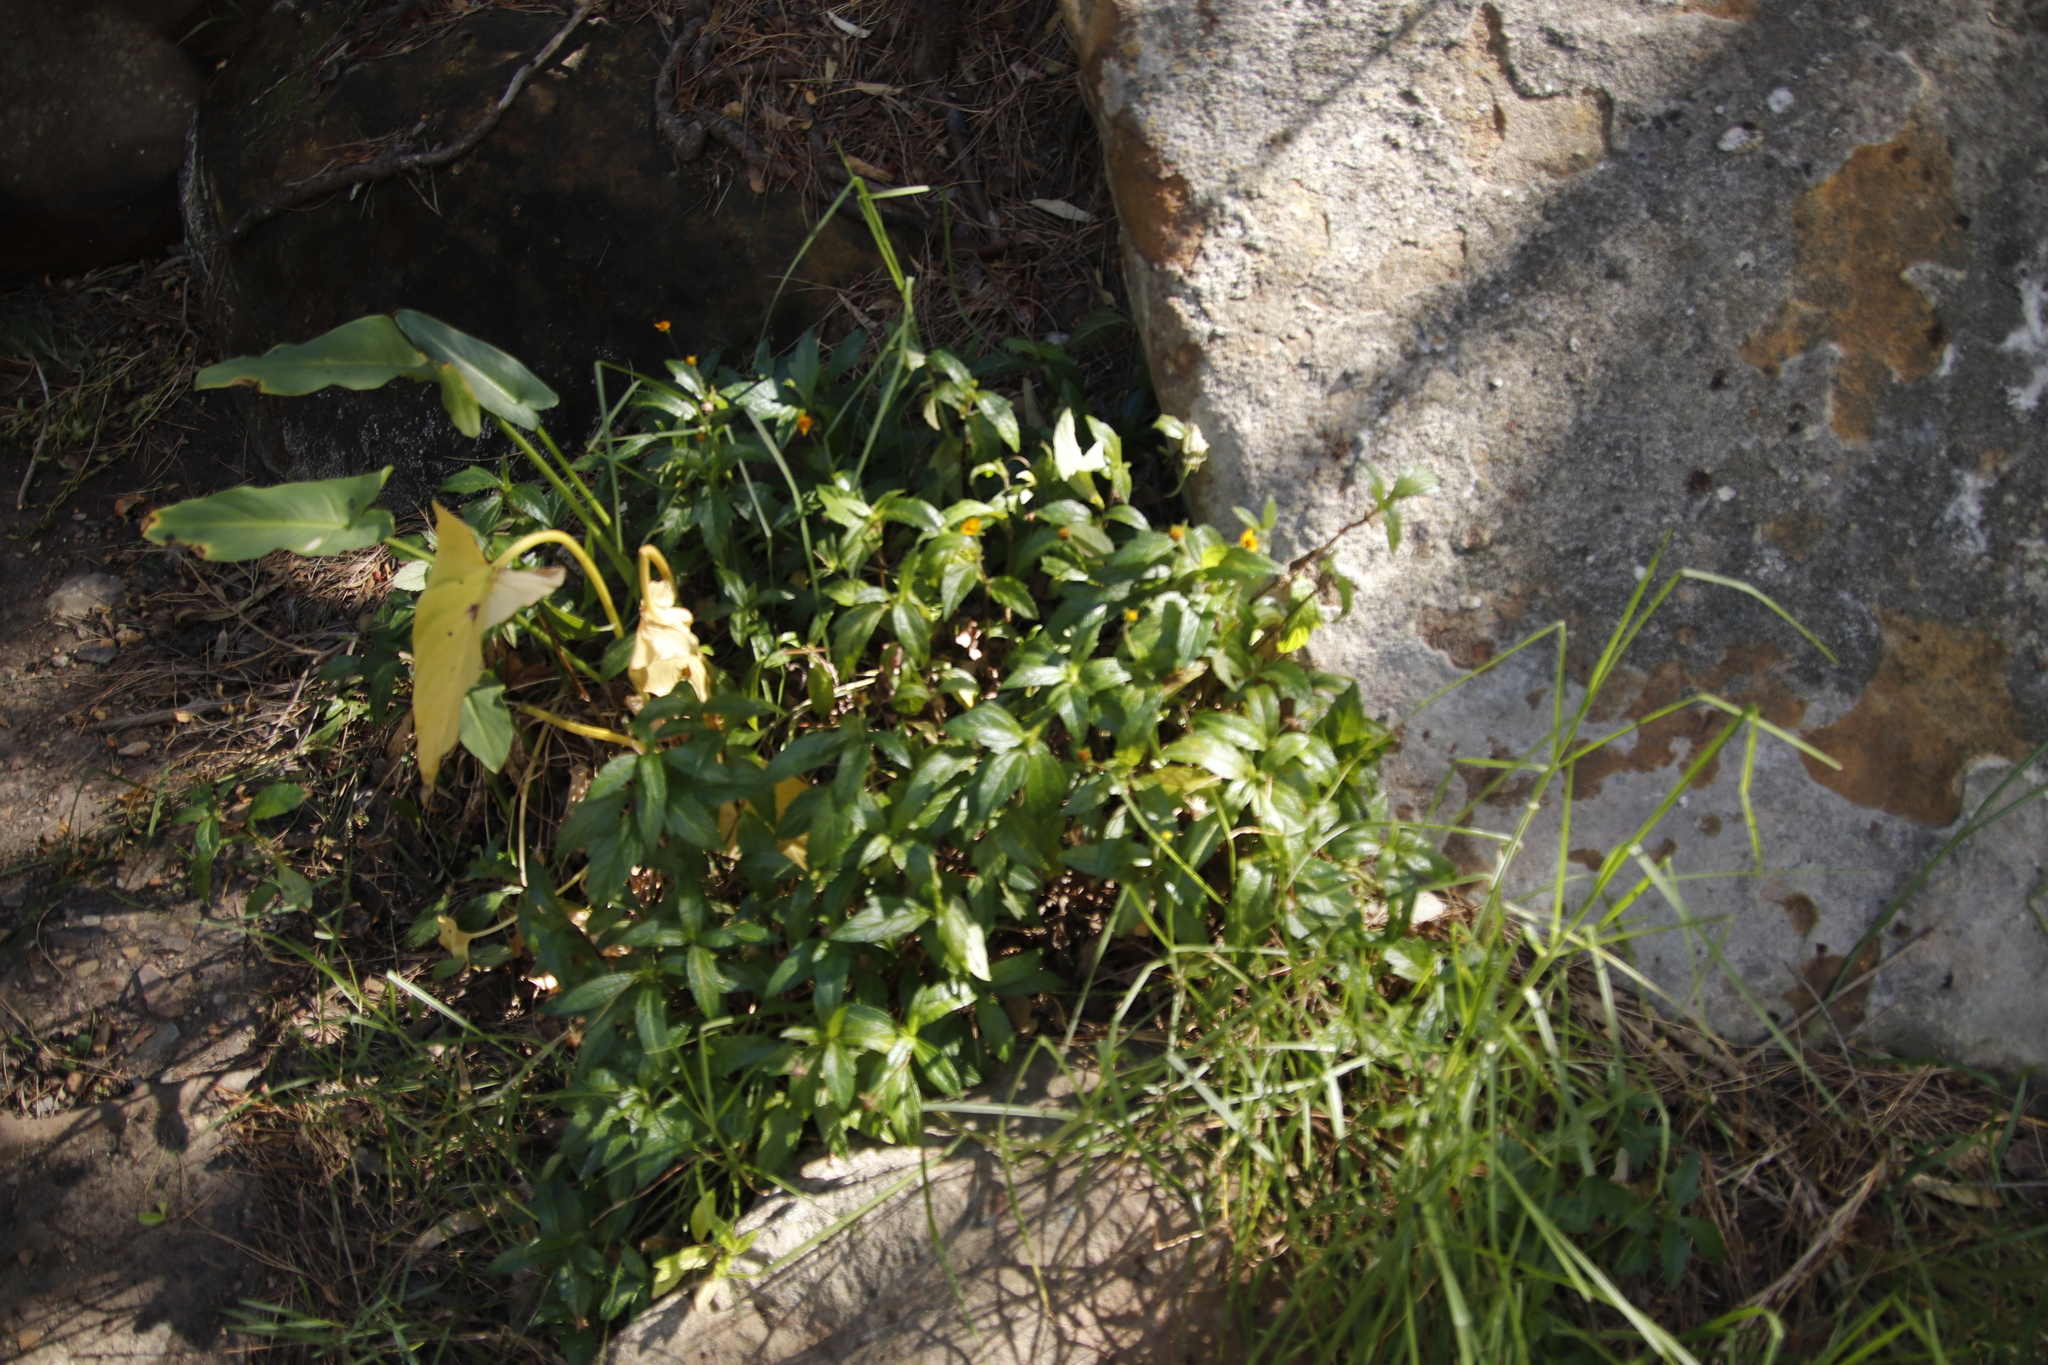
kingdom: Plantae
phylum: Tracheophyta
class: Magnoliopsida
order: Asterales
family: Asteraceae
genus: Sphagneticola
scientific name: Sphagneticola trilobata
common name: Bay biscayne creeping-oxeye
